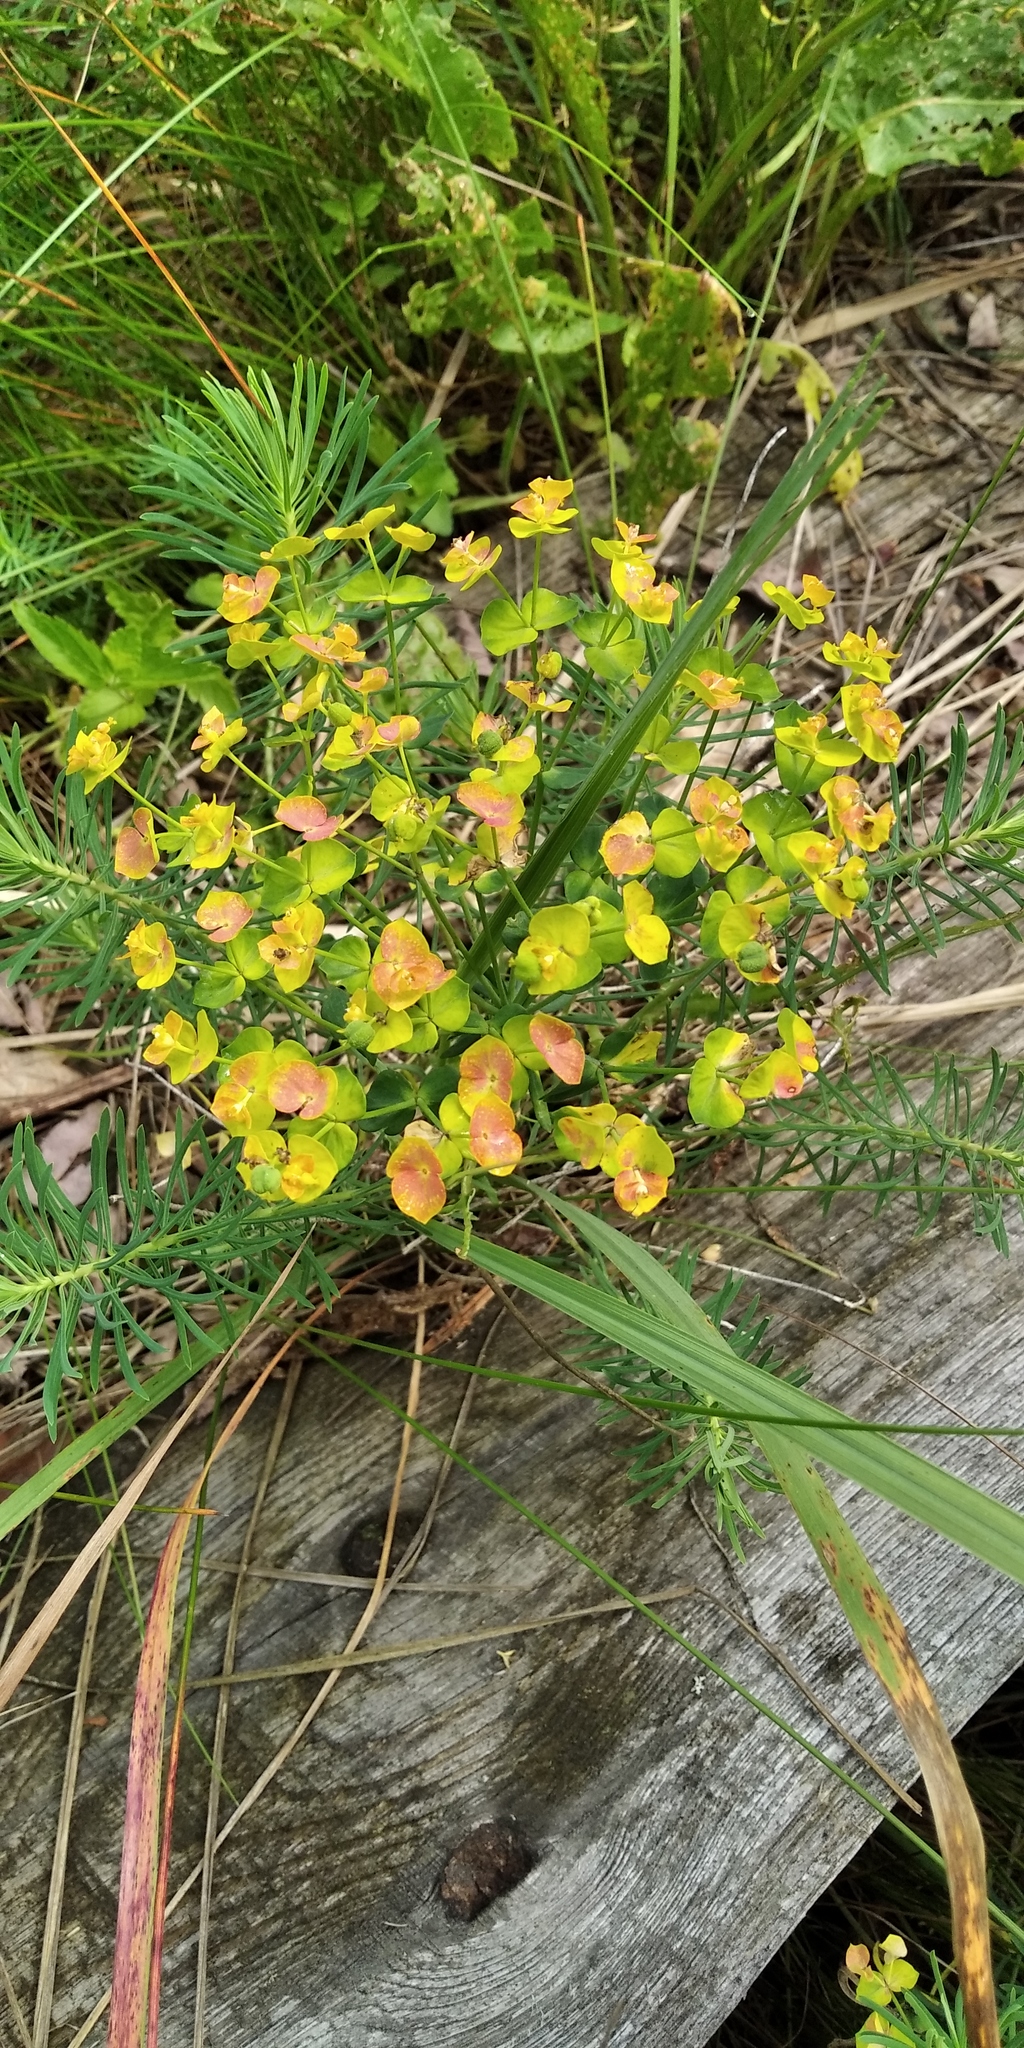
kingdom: Plantae
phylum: Tracheophyta
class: Magnoliopsida
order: Malpighiales
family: Euphorbiaceae
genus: Euphorbia
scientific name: Euphorbia cyparissias
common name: Cypress spurge
